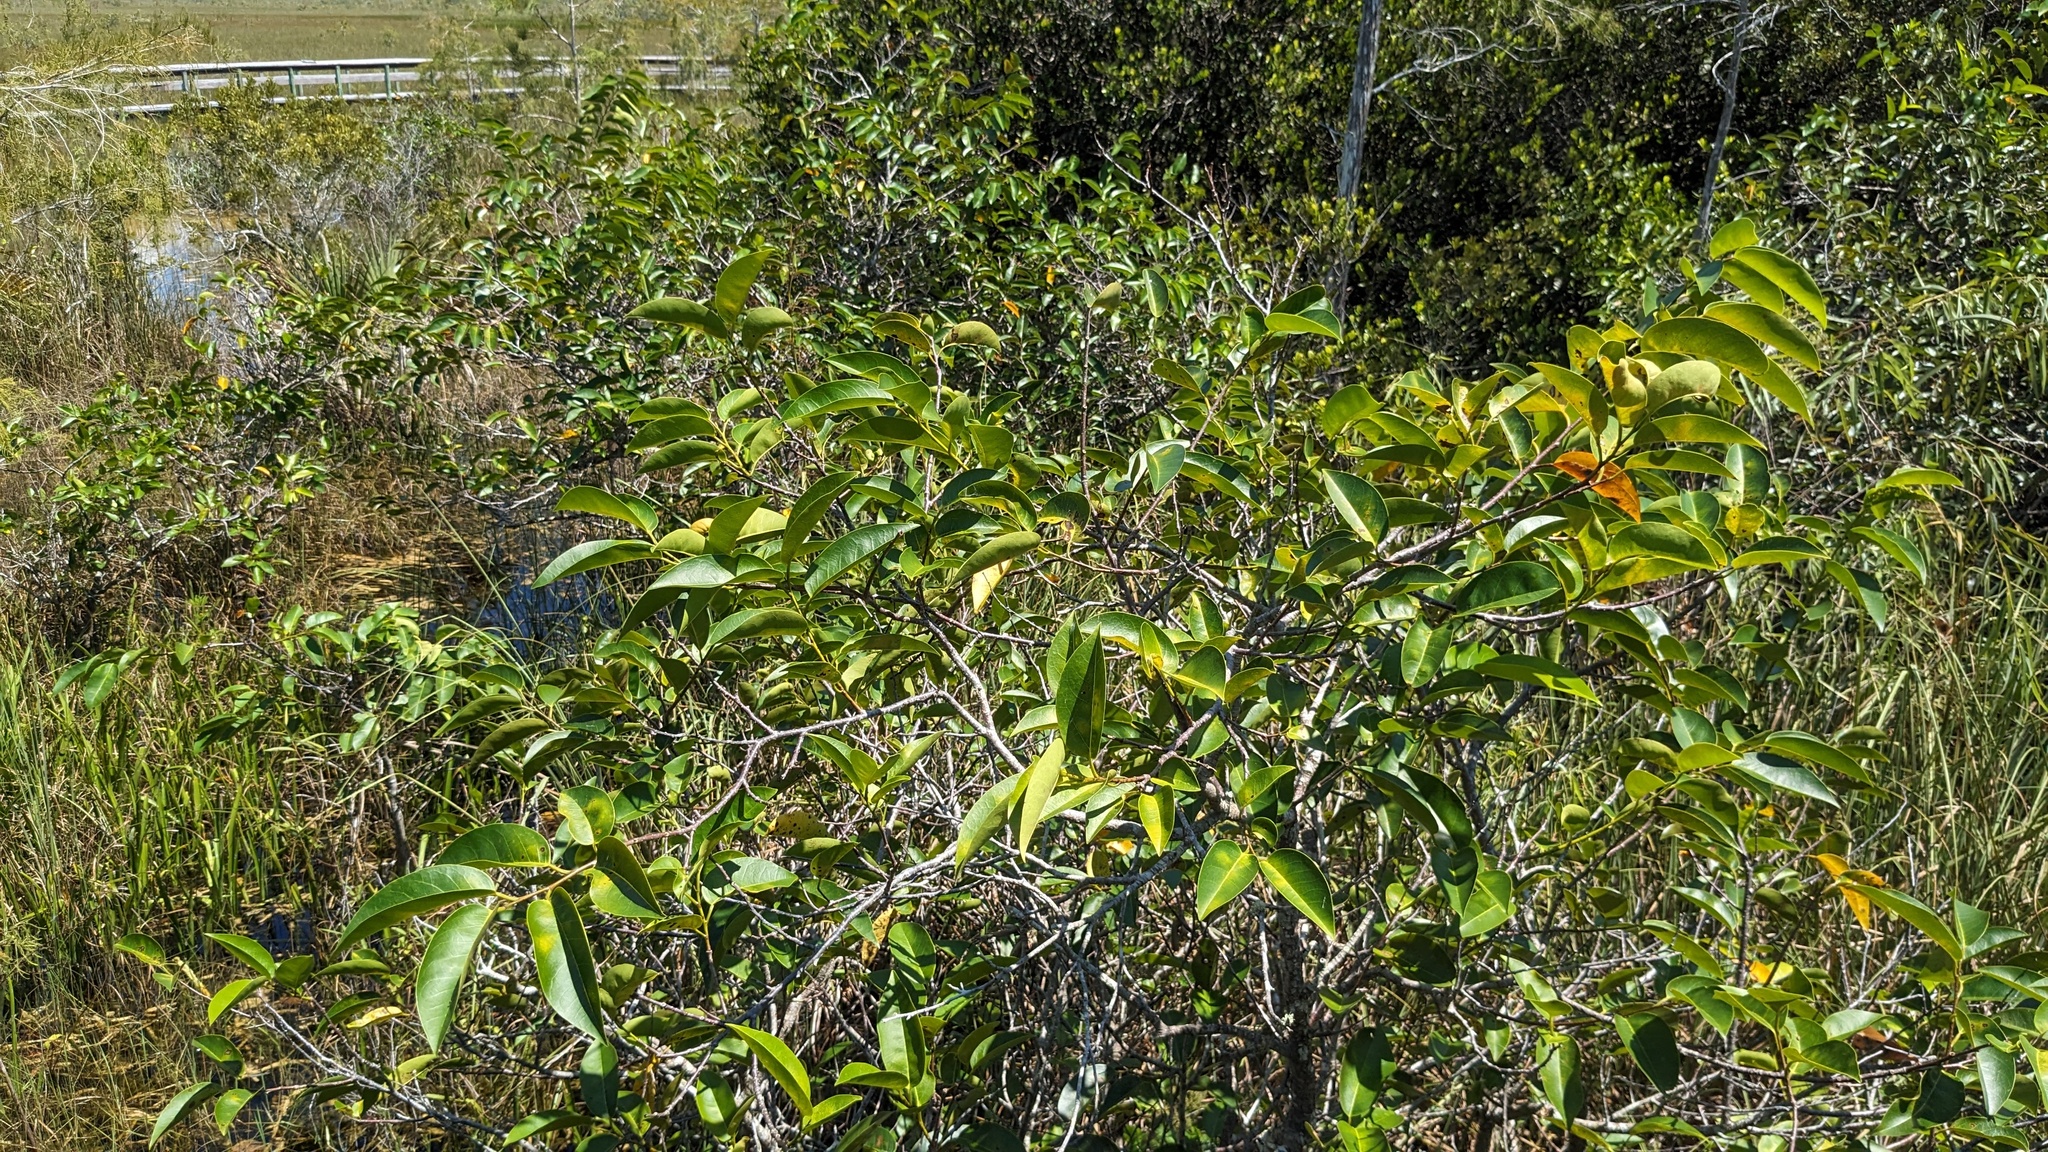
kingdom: Plantae
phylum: Tracheophyta
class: Magnoliopsida
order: Magnoliales
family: Annonaceae
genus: Annona
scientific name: Annona glabra
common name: Monkey apple
